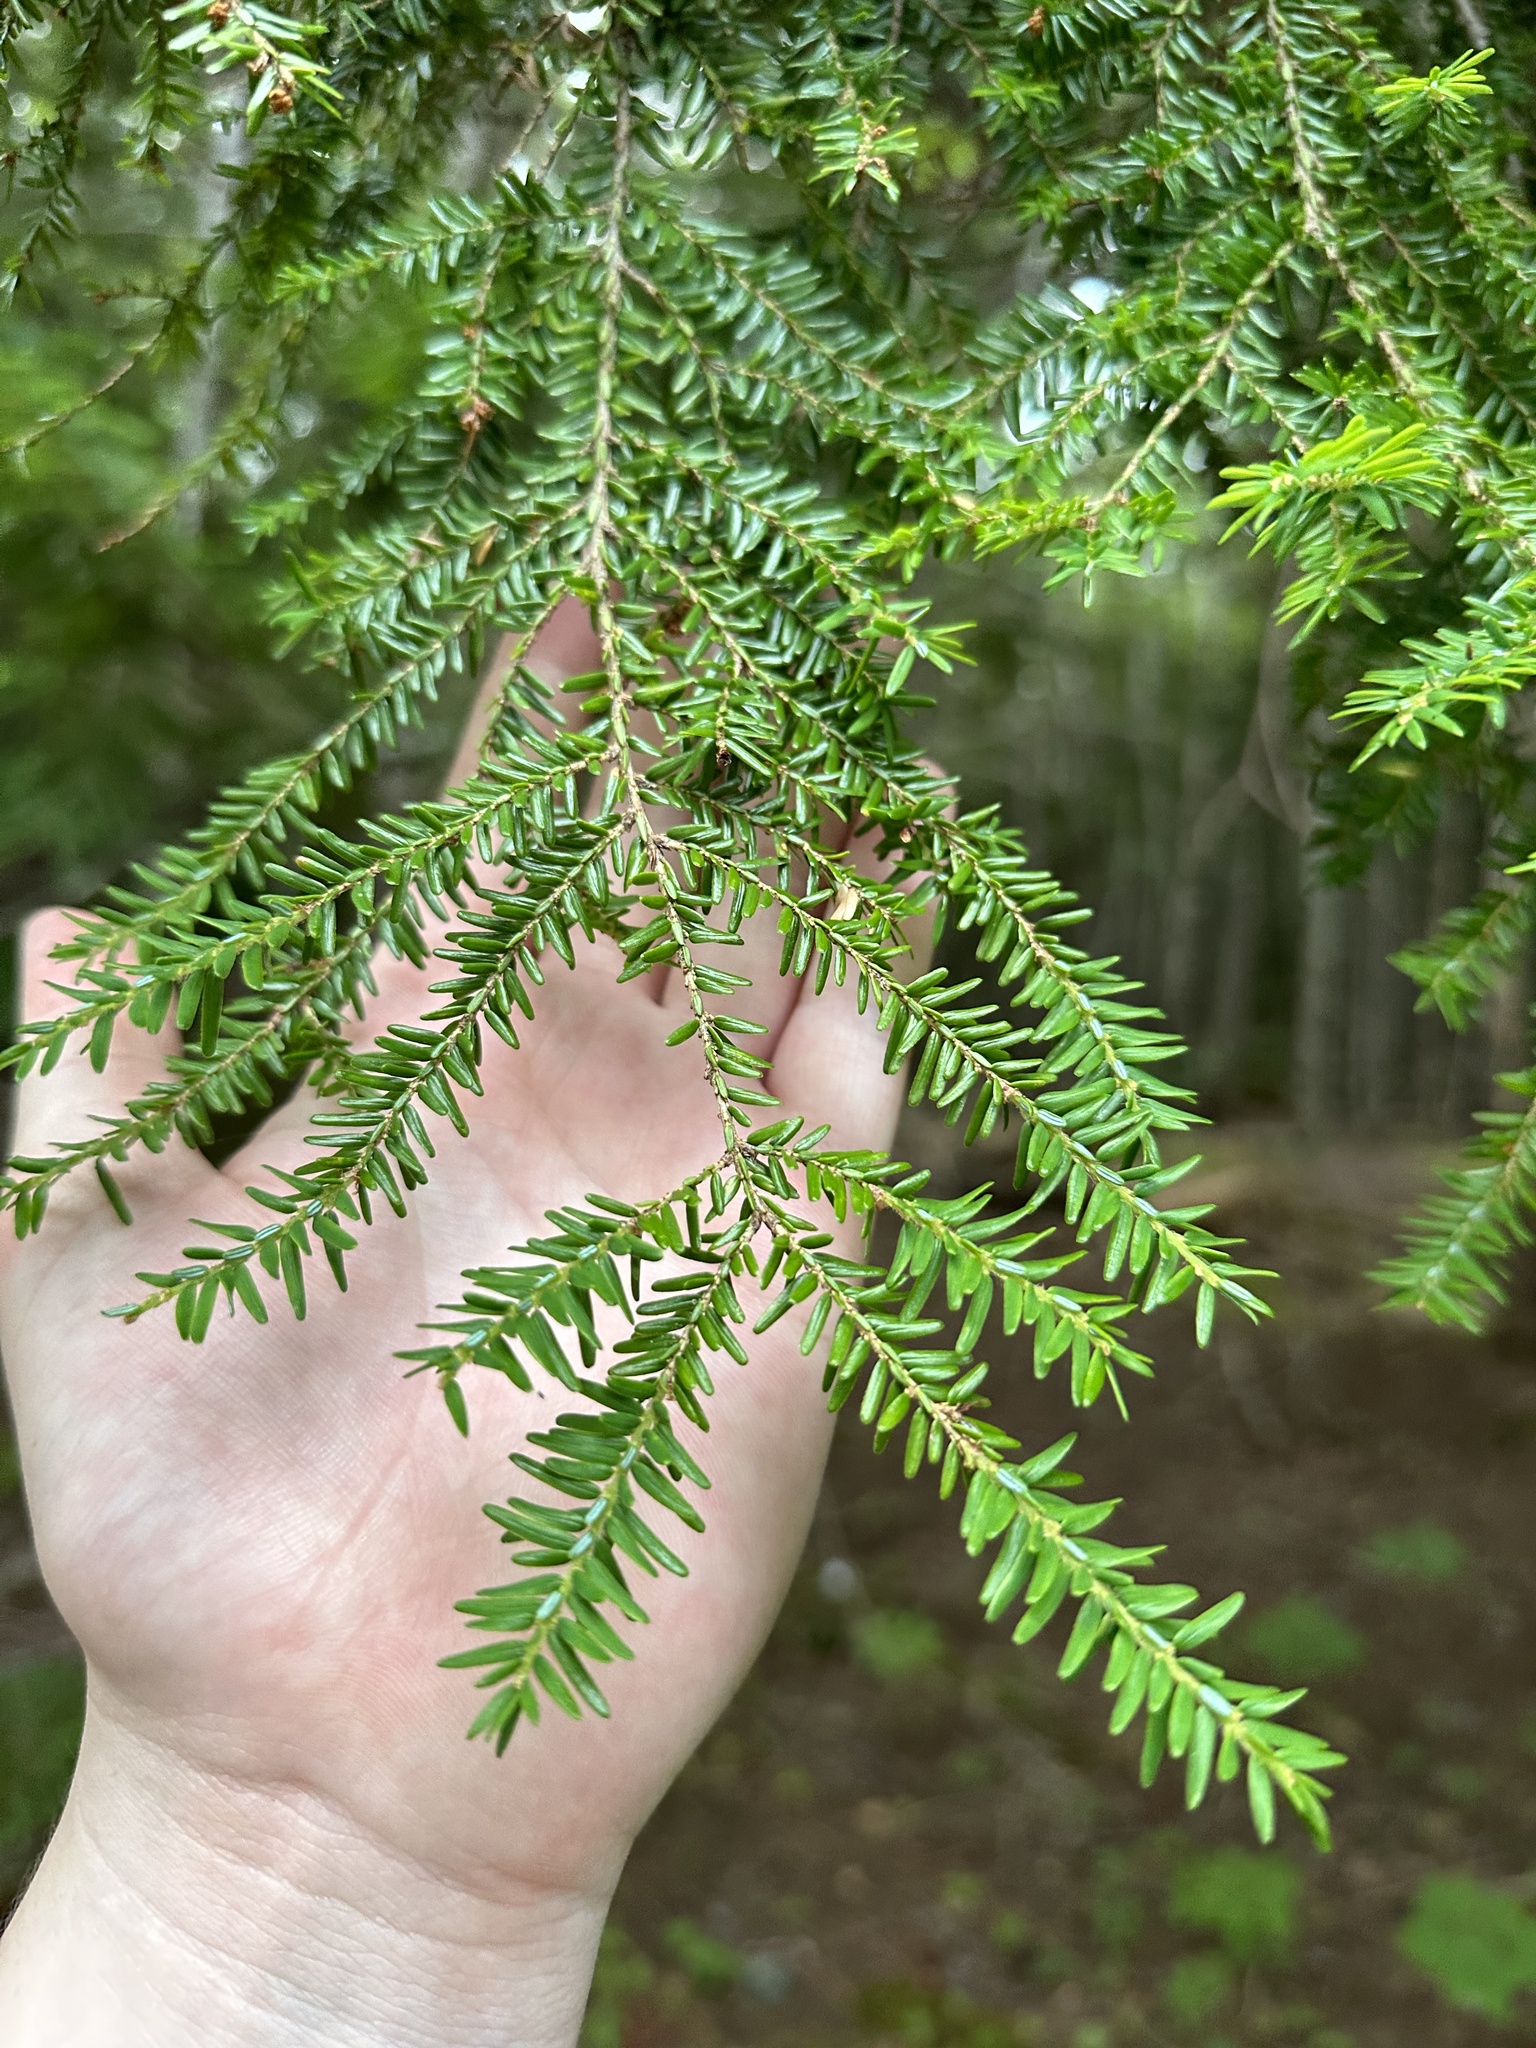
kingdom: Plantae
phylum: Tracheophyta
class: Pinopsida
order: Pinales
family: Pinaceae
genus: Tsuga
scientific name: Tsuga canadensis
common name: Eastern hemlock
